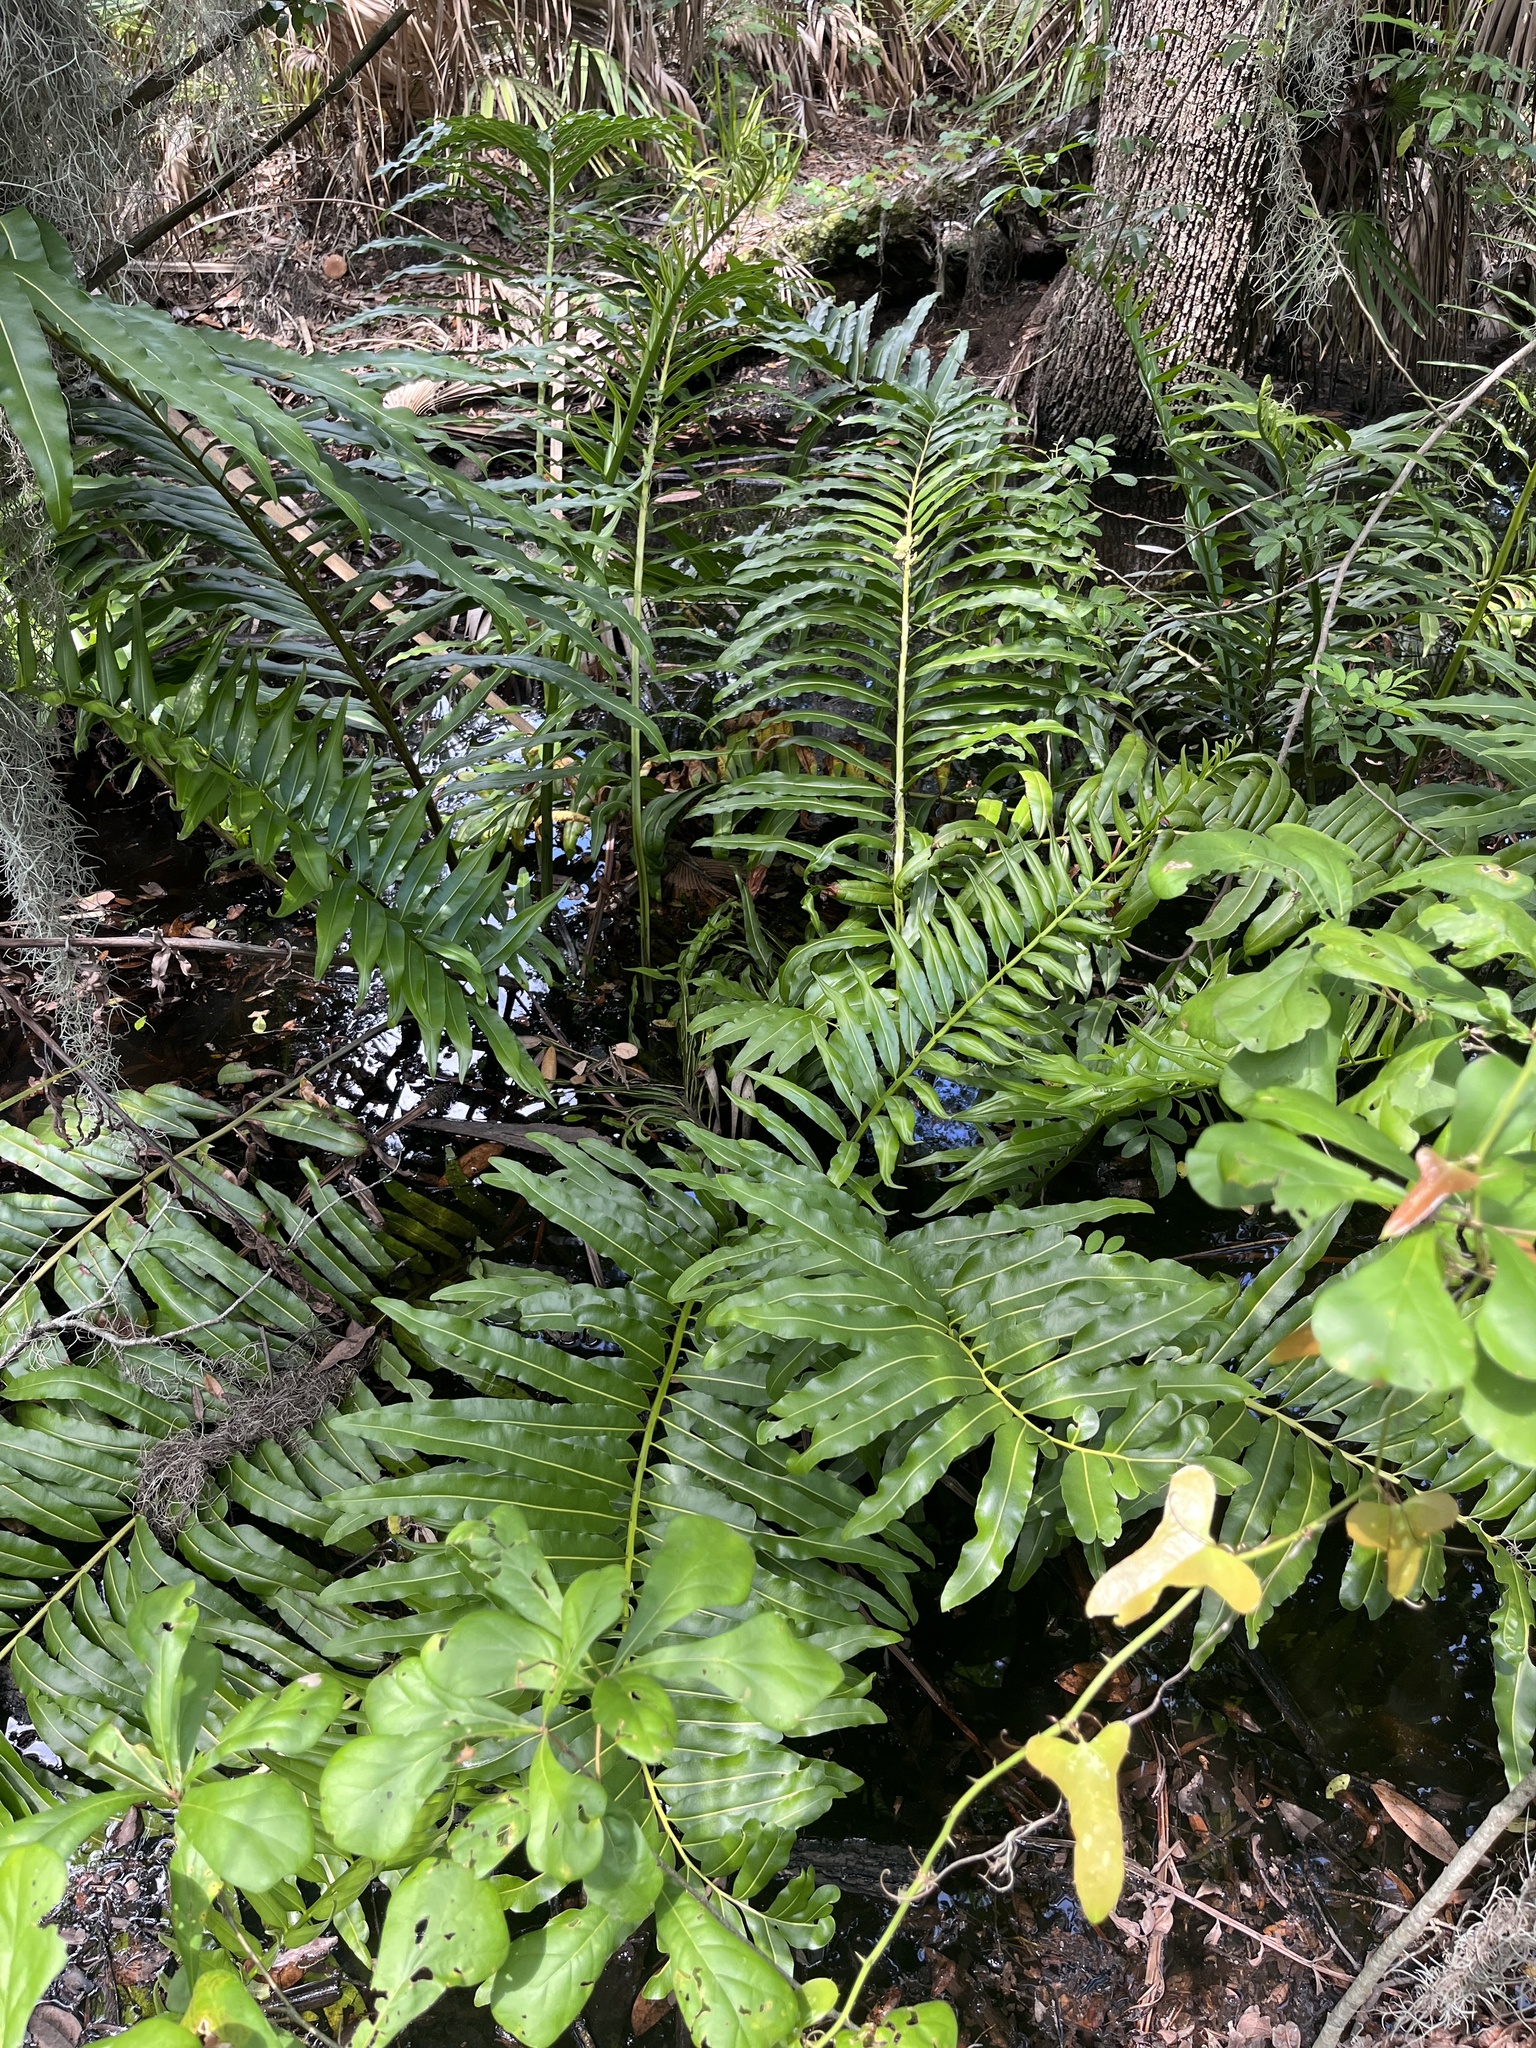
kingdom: Plantae
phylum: Tracheophyta
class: Polypodiopsida
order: Polypodiales
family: Pteridaceae
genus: Acrostichum
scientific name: Acrostichum danaeifolium
